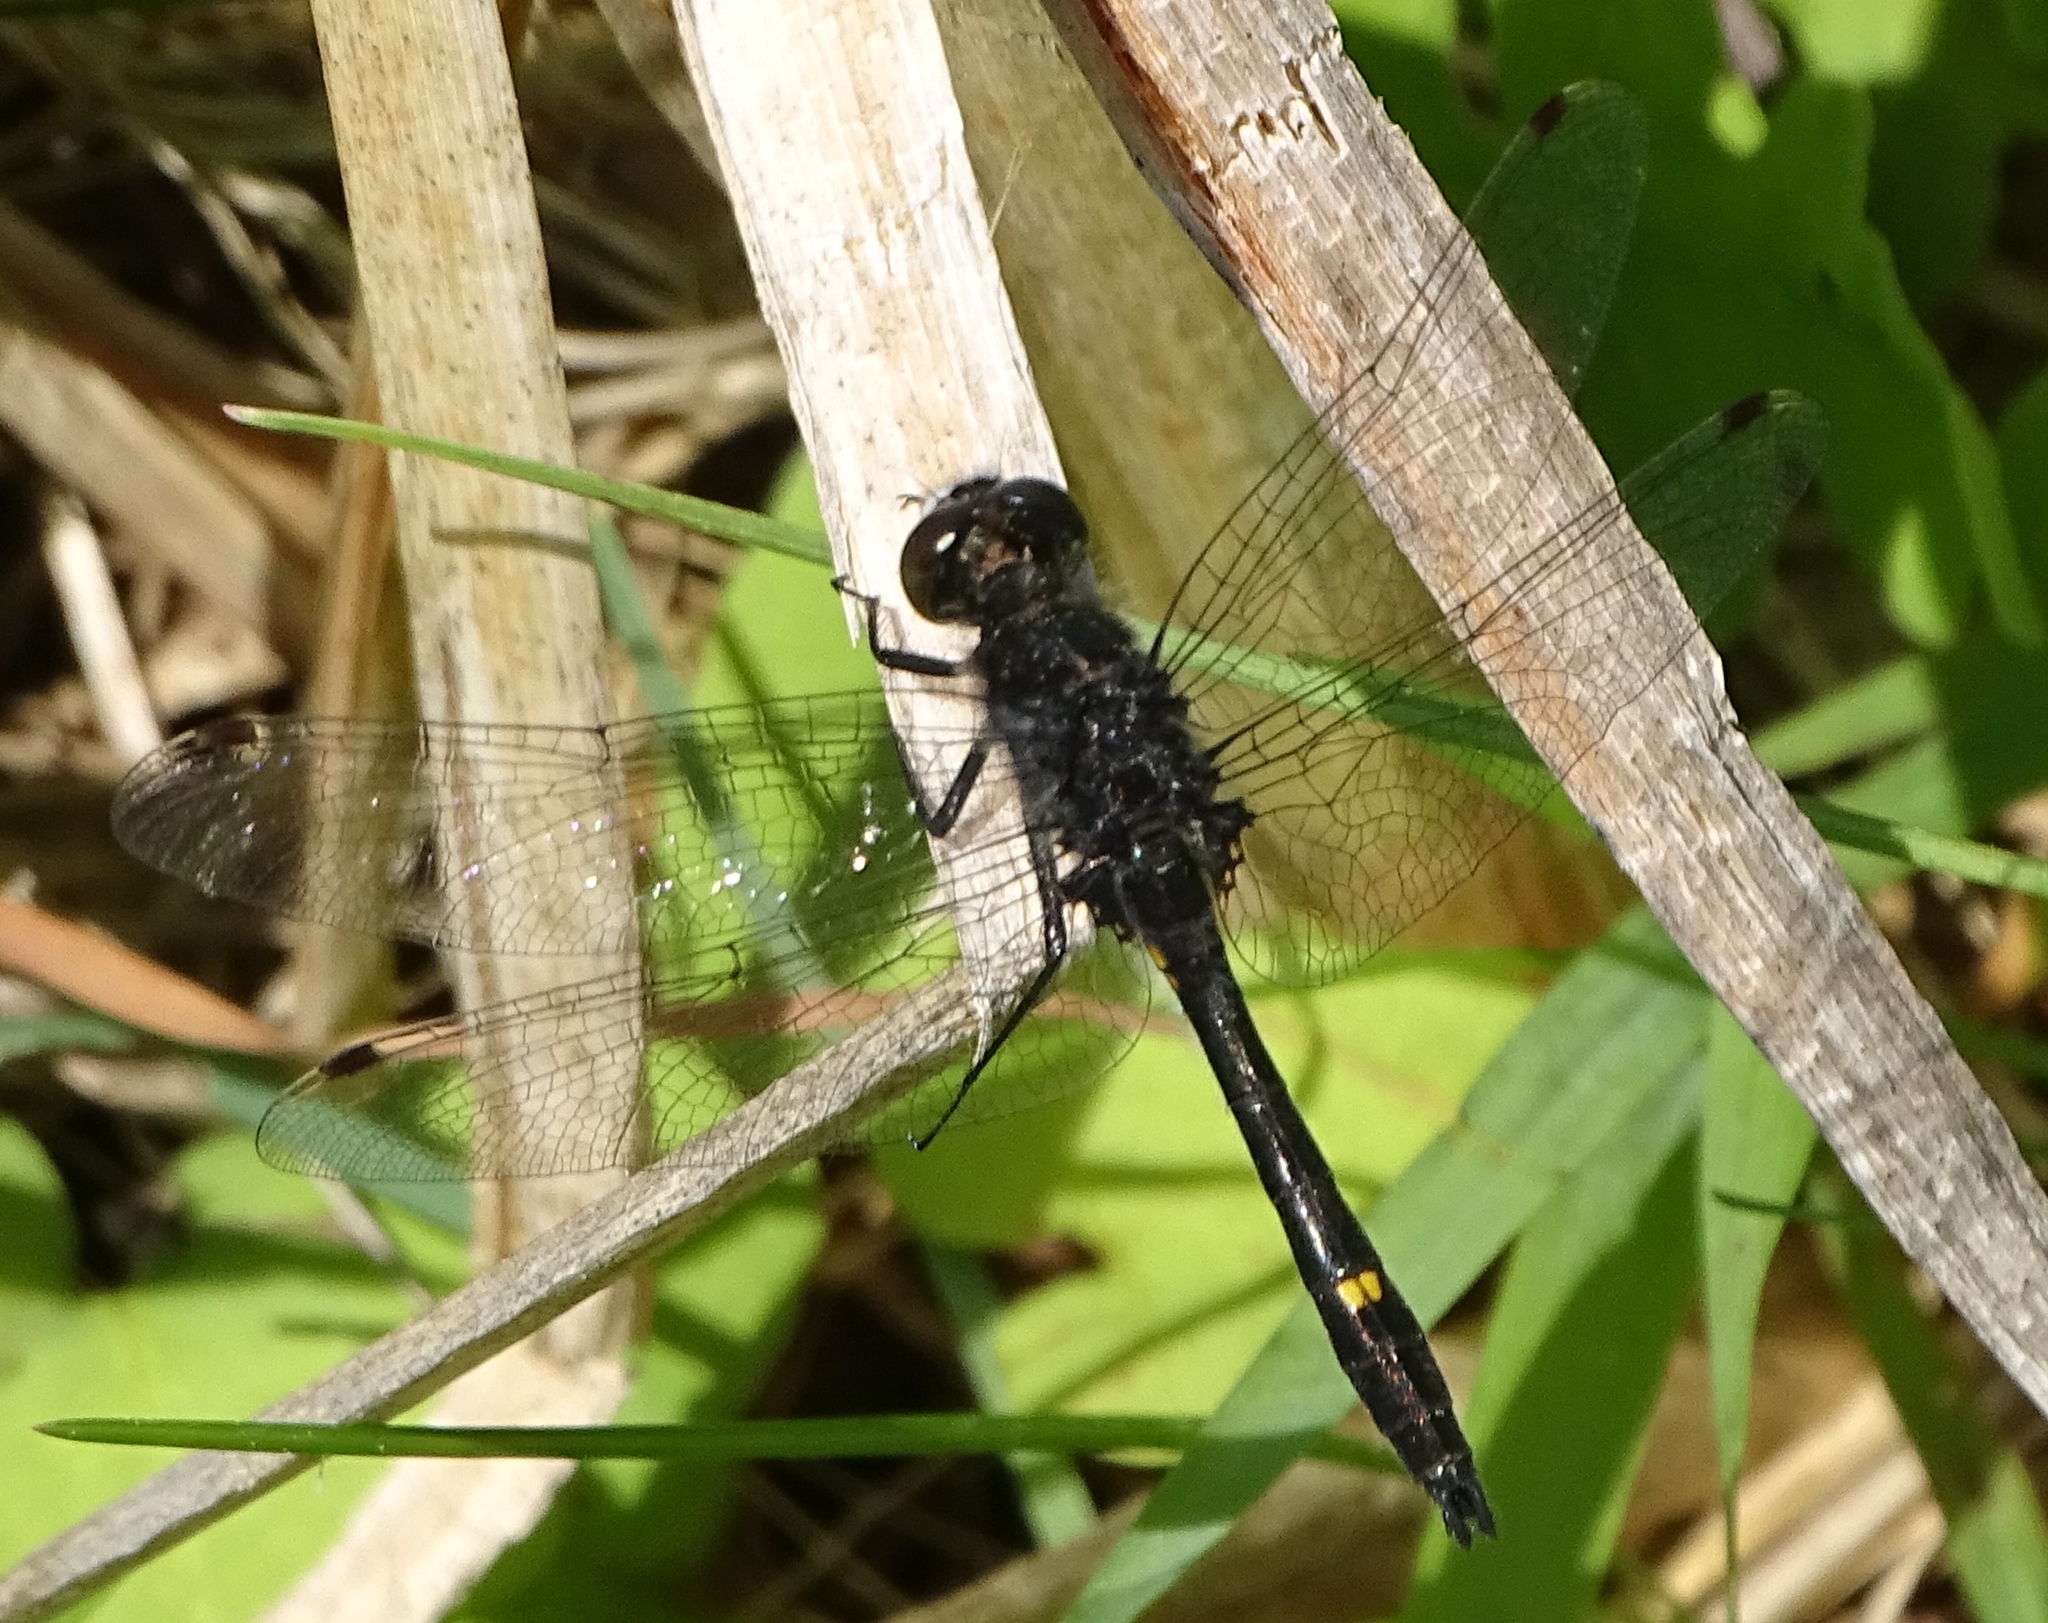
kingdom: Animalia
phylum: Arthropoda
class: Insecta
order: Odonata
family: Libellulidae
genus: Leucorrhinia
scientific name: Leucorrhinia intacta
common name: Dot-tailed whiteface
